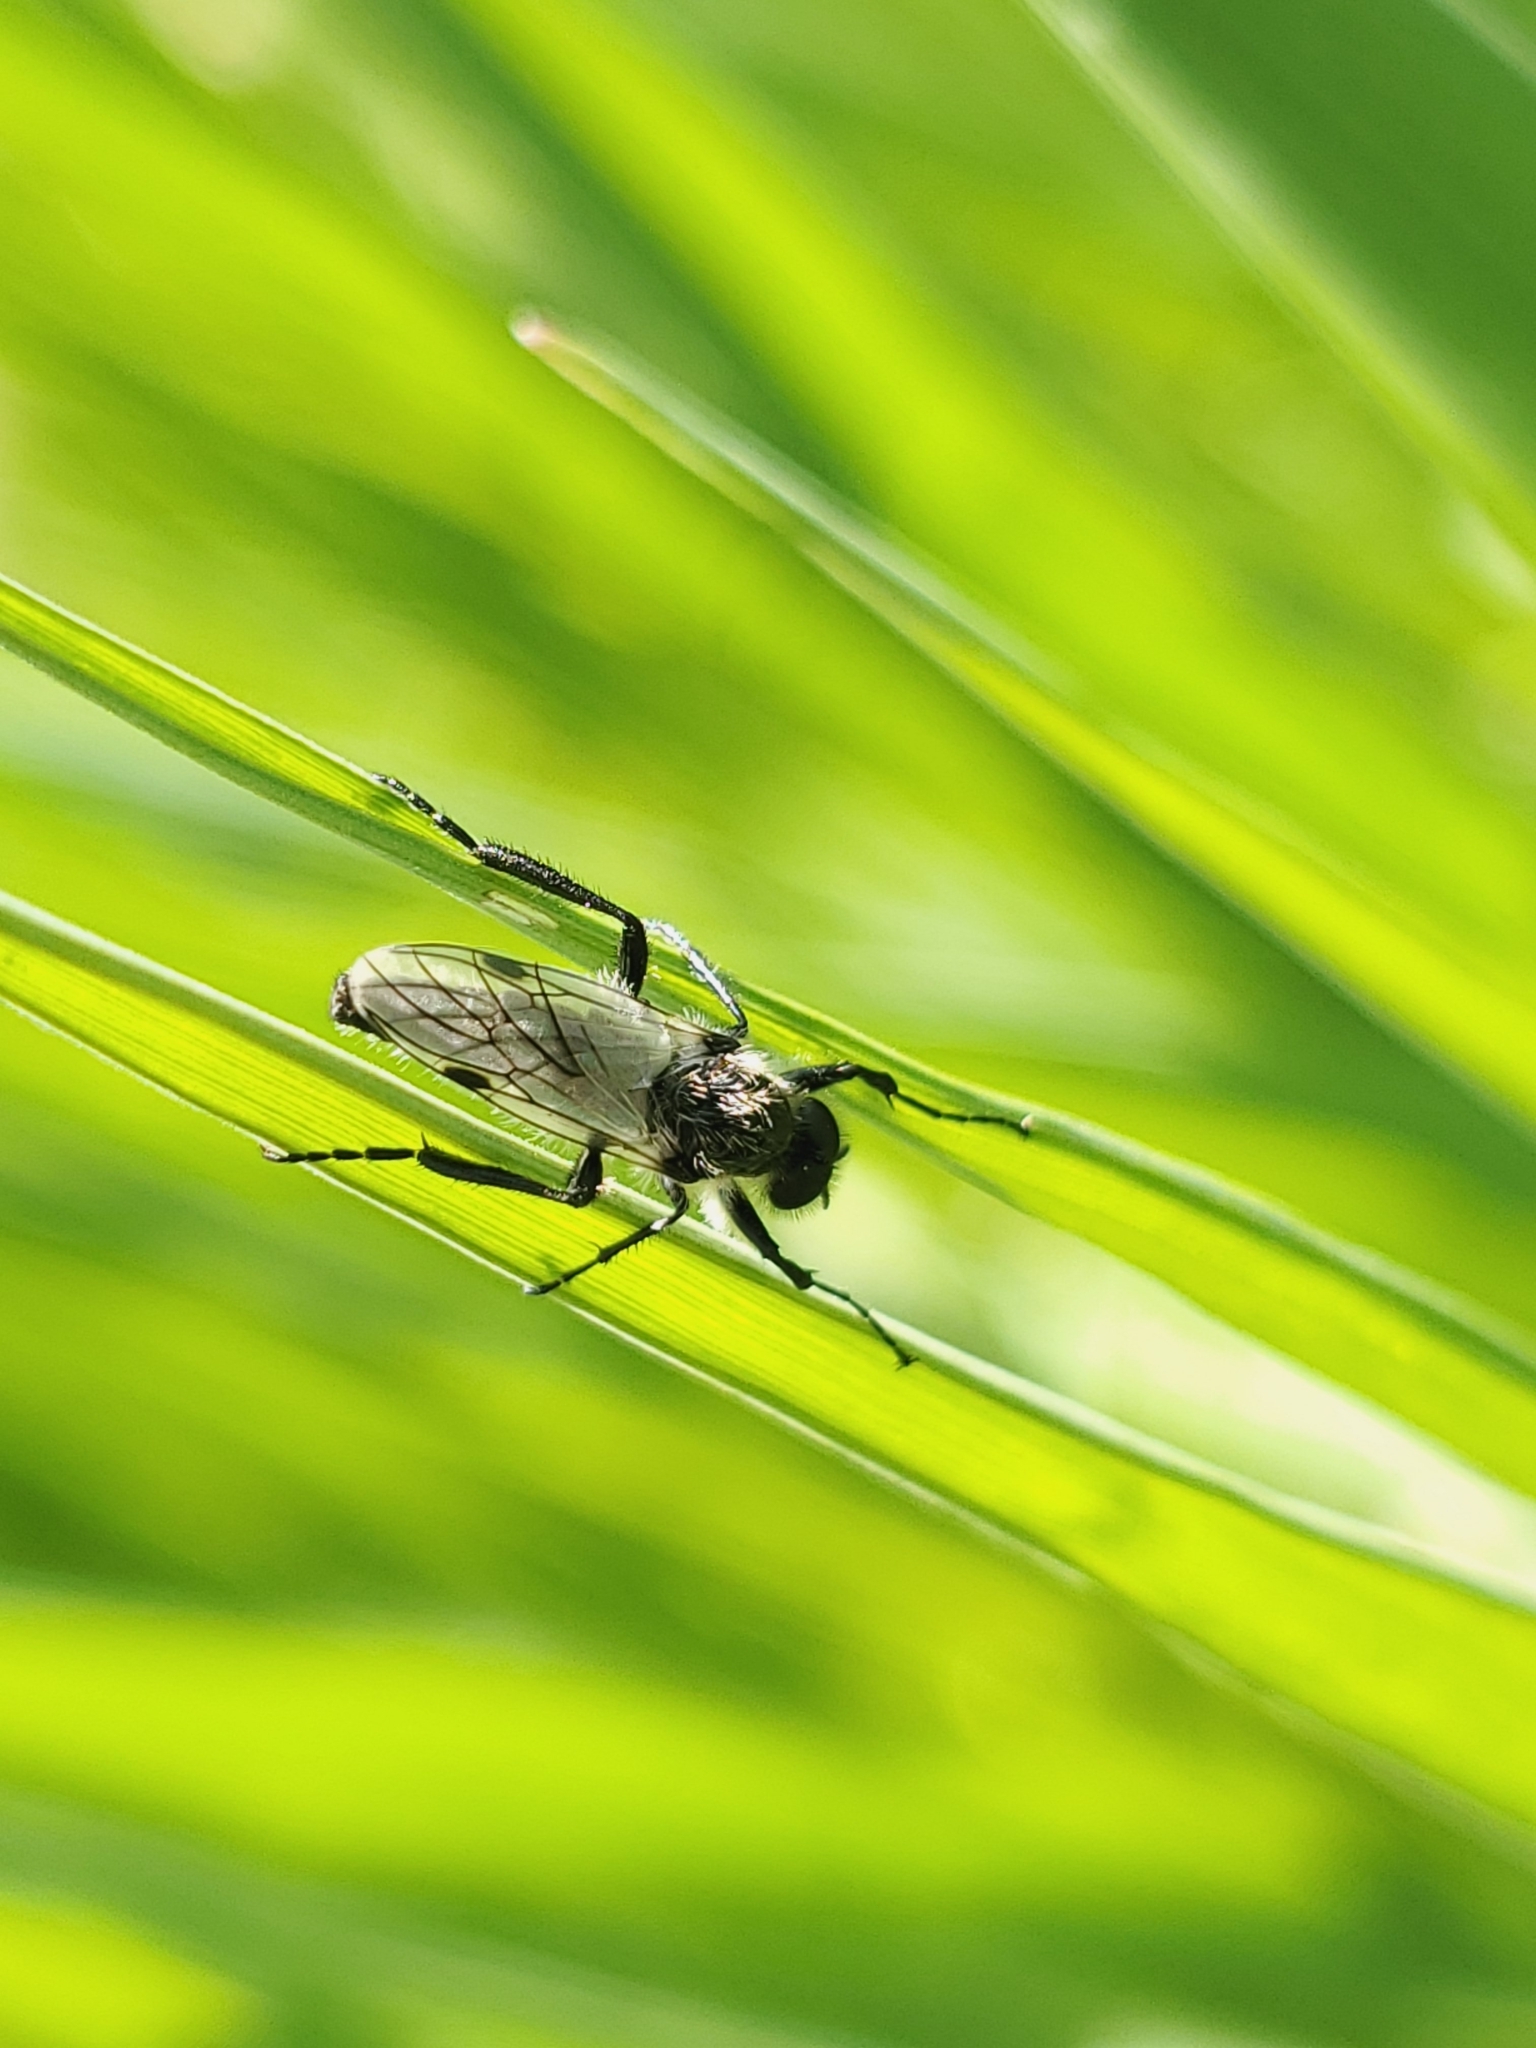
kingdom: Animalia
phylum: Arthropoda
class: Insecta
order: Diptera
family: Bibionidae
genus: Bibio
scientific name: Bibio albipennis
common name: White-winged march fly
